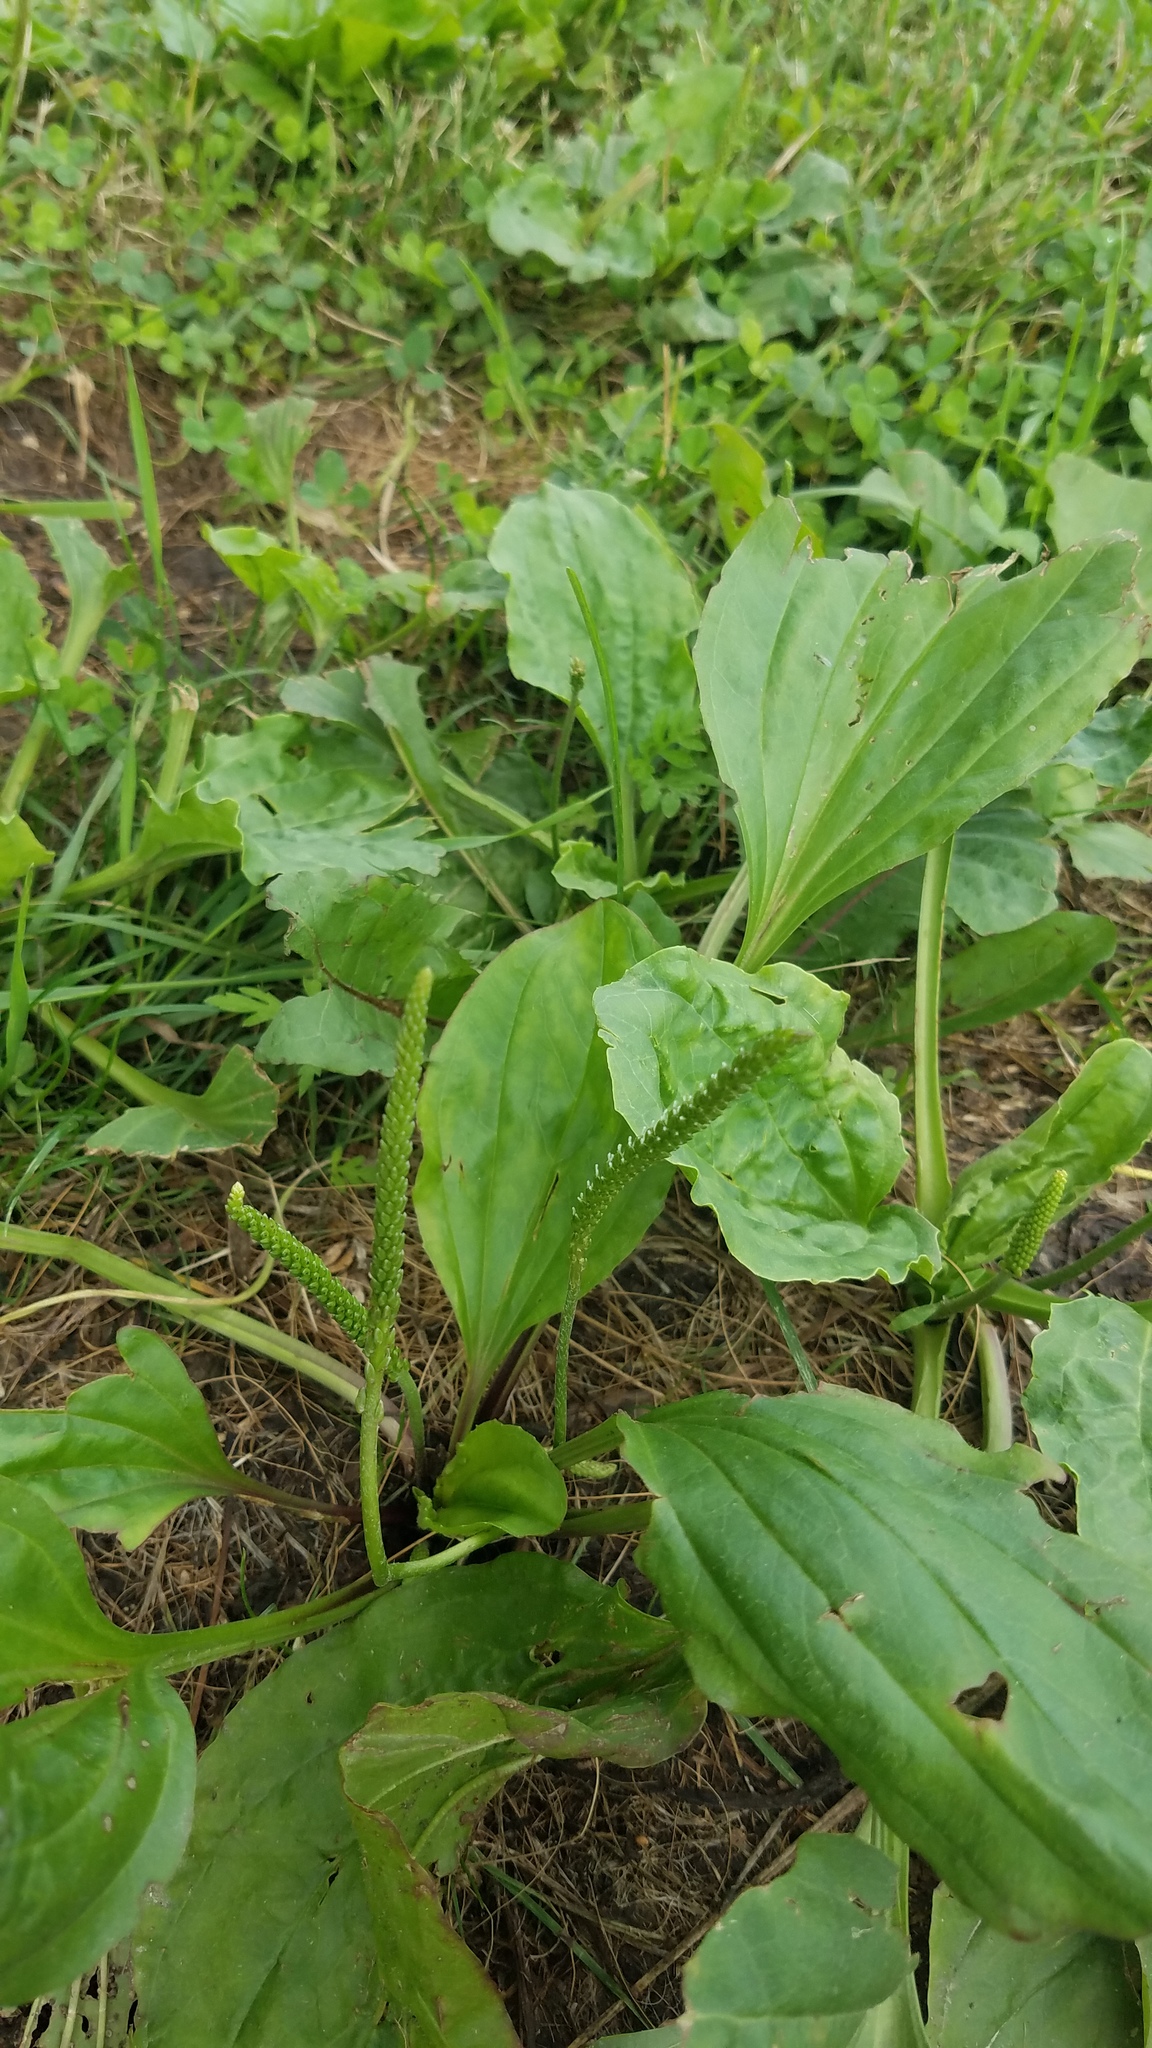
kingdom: Plantae
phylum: Tracheophyta
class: Magnoliopsida
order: Lamiales
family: Plantaginaceae
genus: Plantago
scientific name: Plantago rugelii
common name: American plantain
